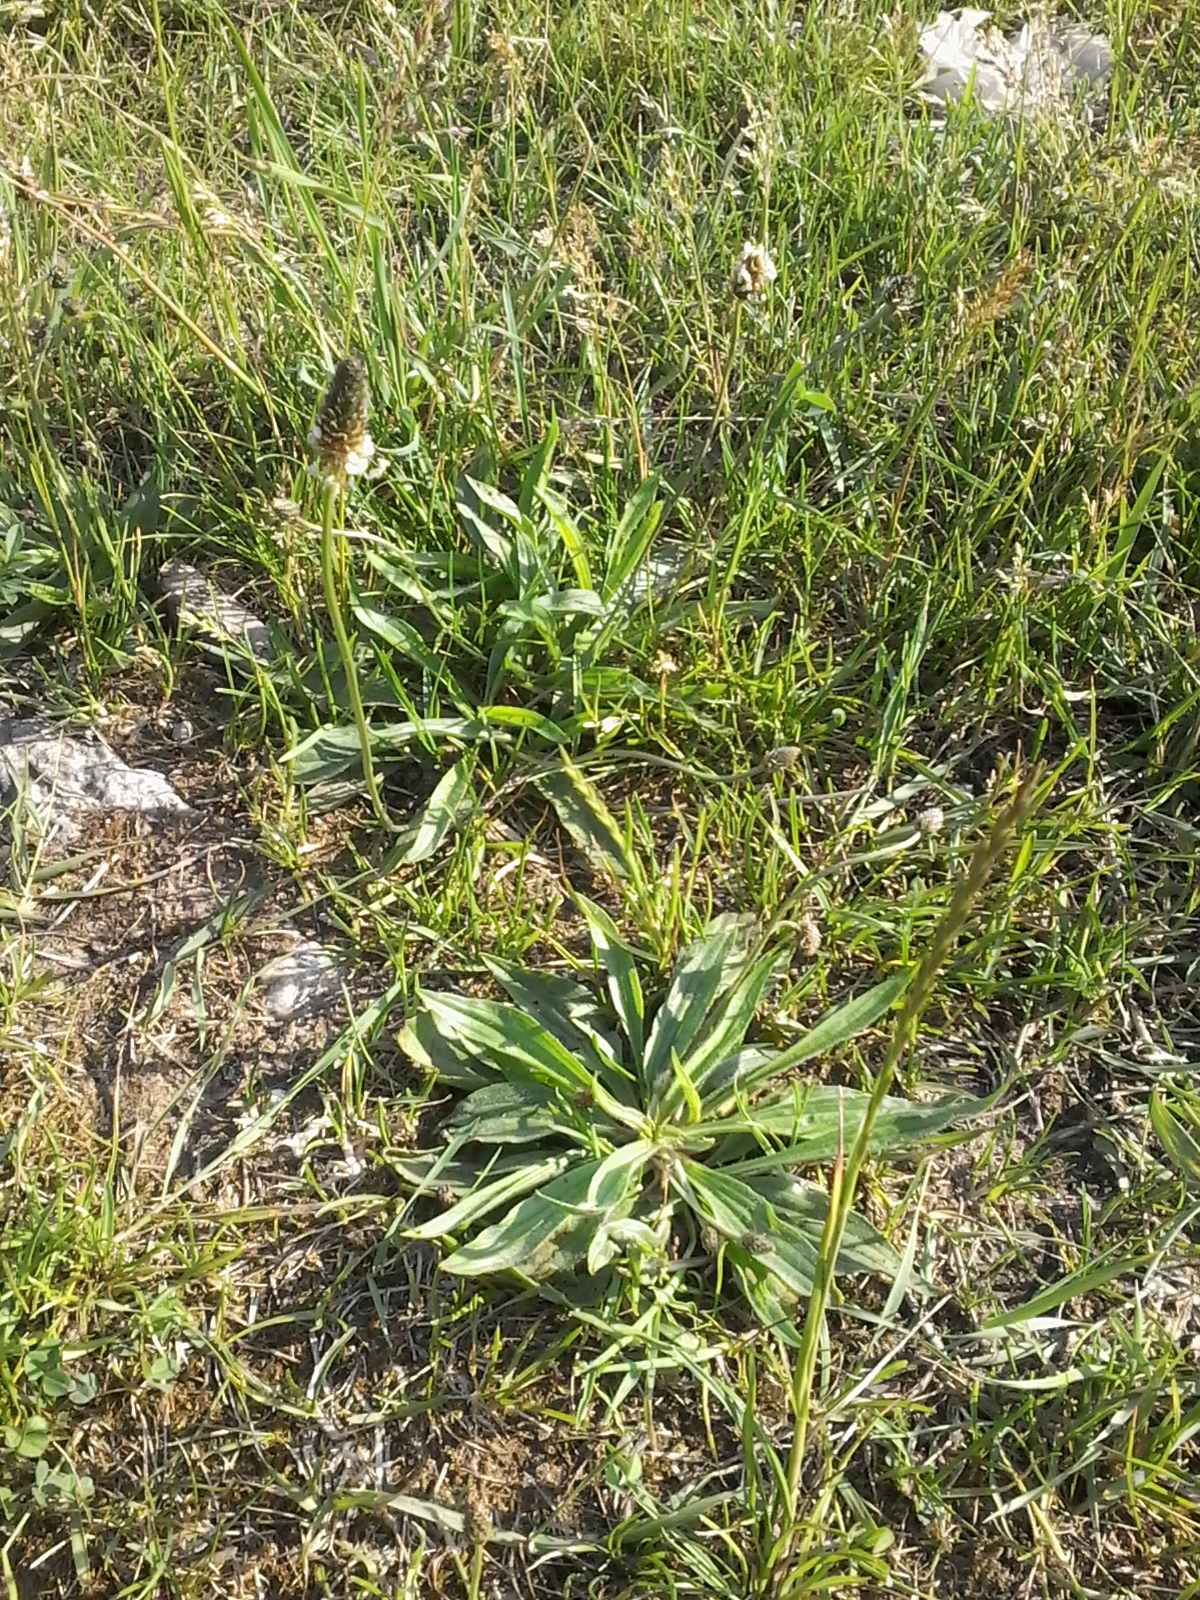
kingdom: Plantae
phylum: Tracheophyta
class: Magnoliopsida
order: Lamiales
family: Plantaginaceae
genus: Plantago
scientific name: Plantago lanceolata
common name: Ribwort plantain
